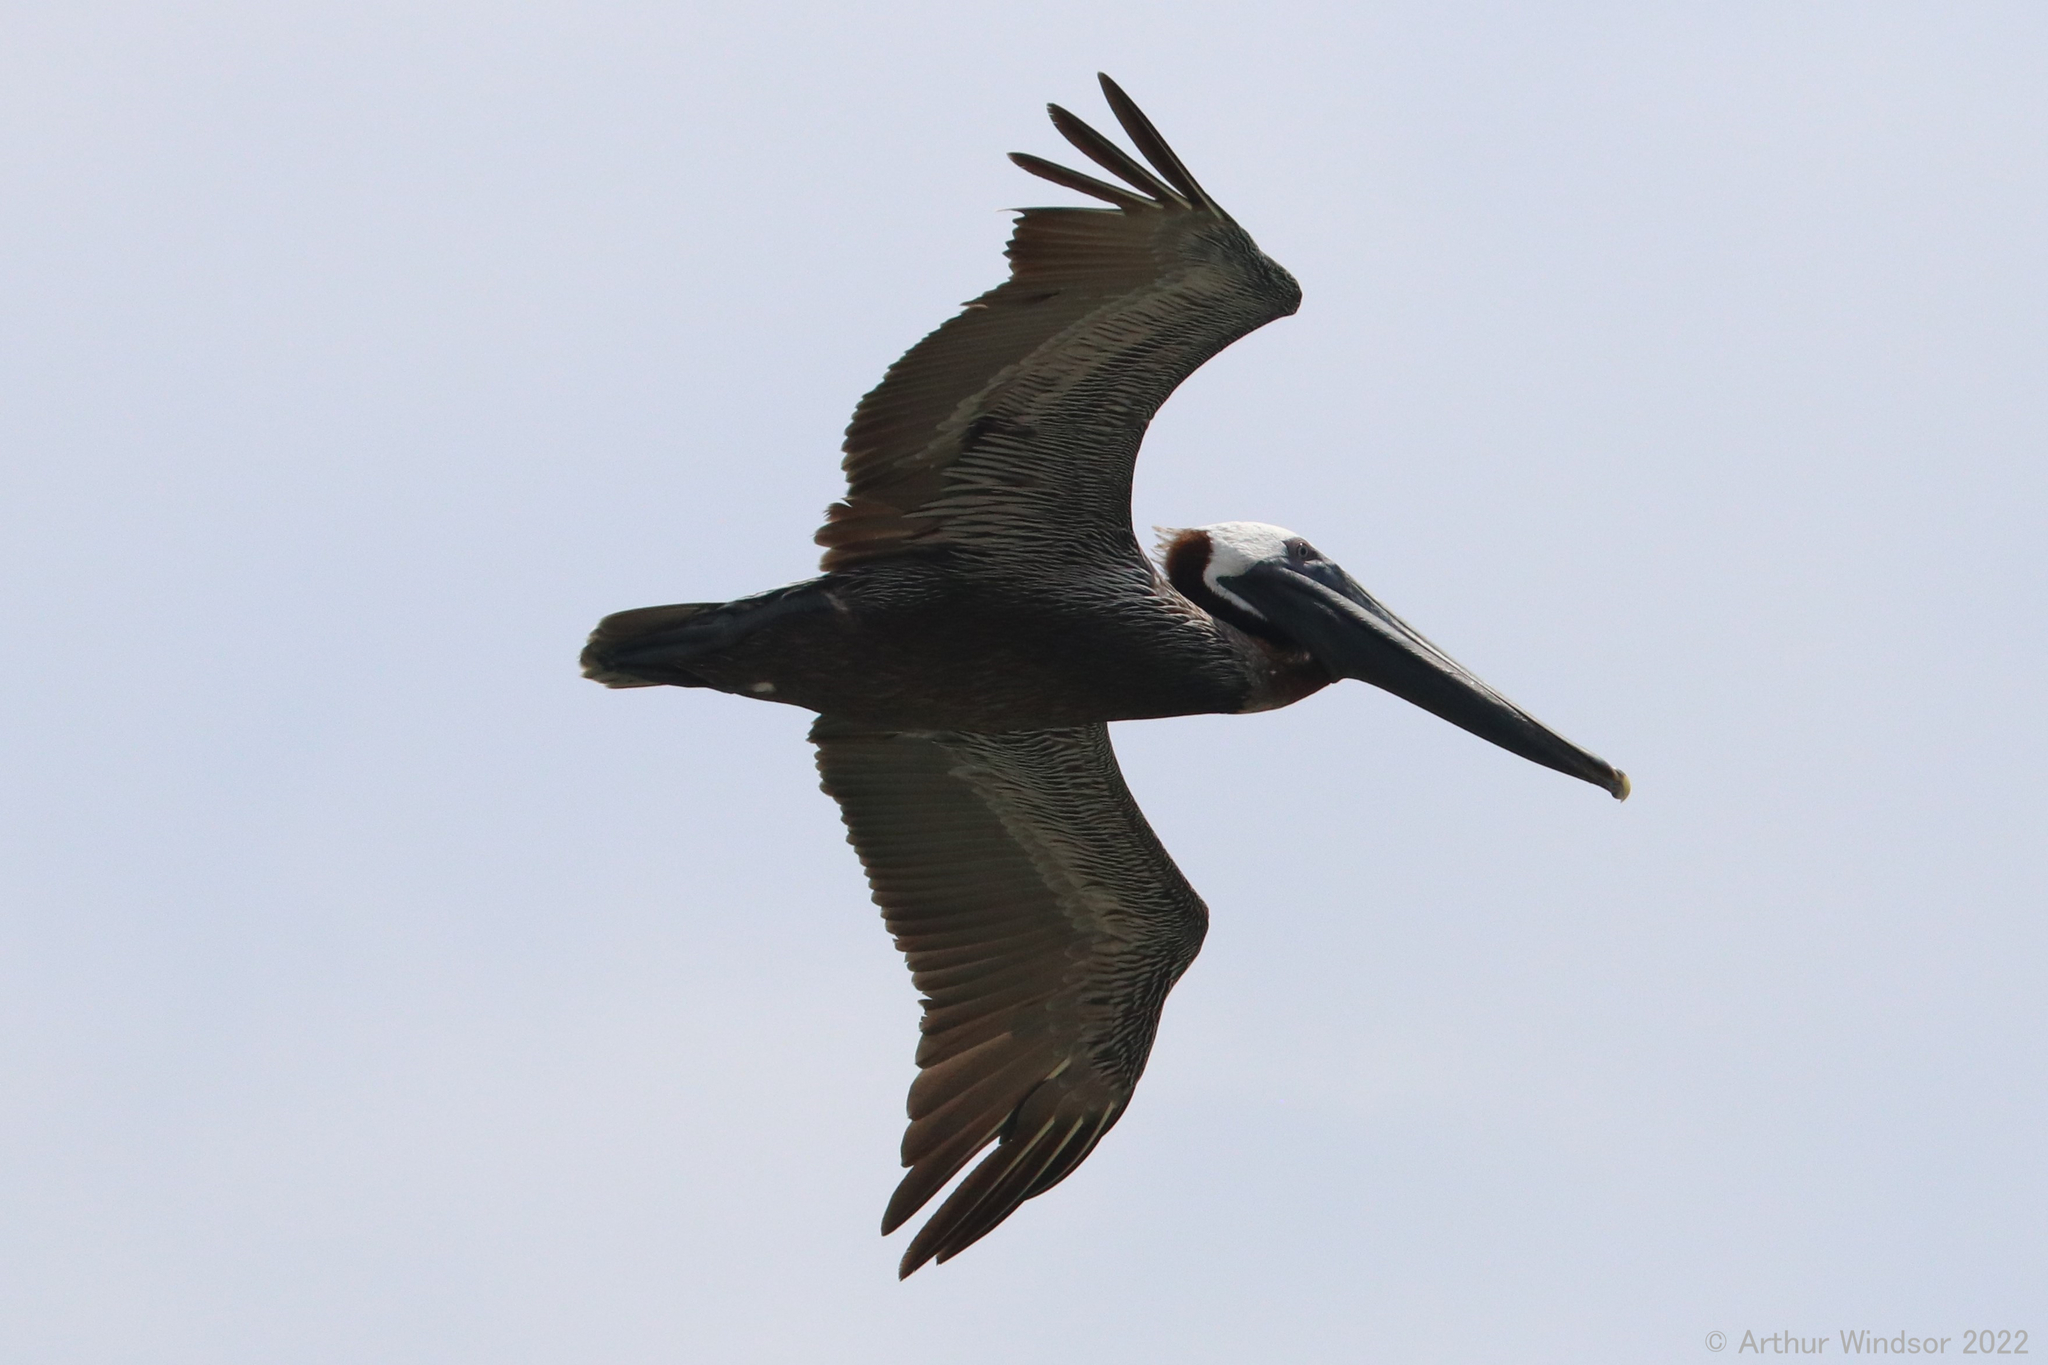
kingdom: Animalia
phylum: Chordata
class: Aves
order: Pelecaniformes
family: Pelecanidae
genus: Pelecanus
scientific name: Pelecanus occidentalis
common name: Brown pelican
